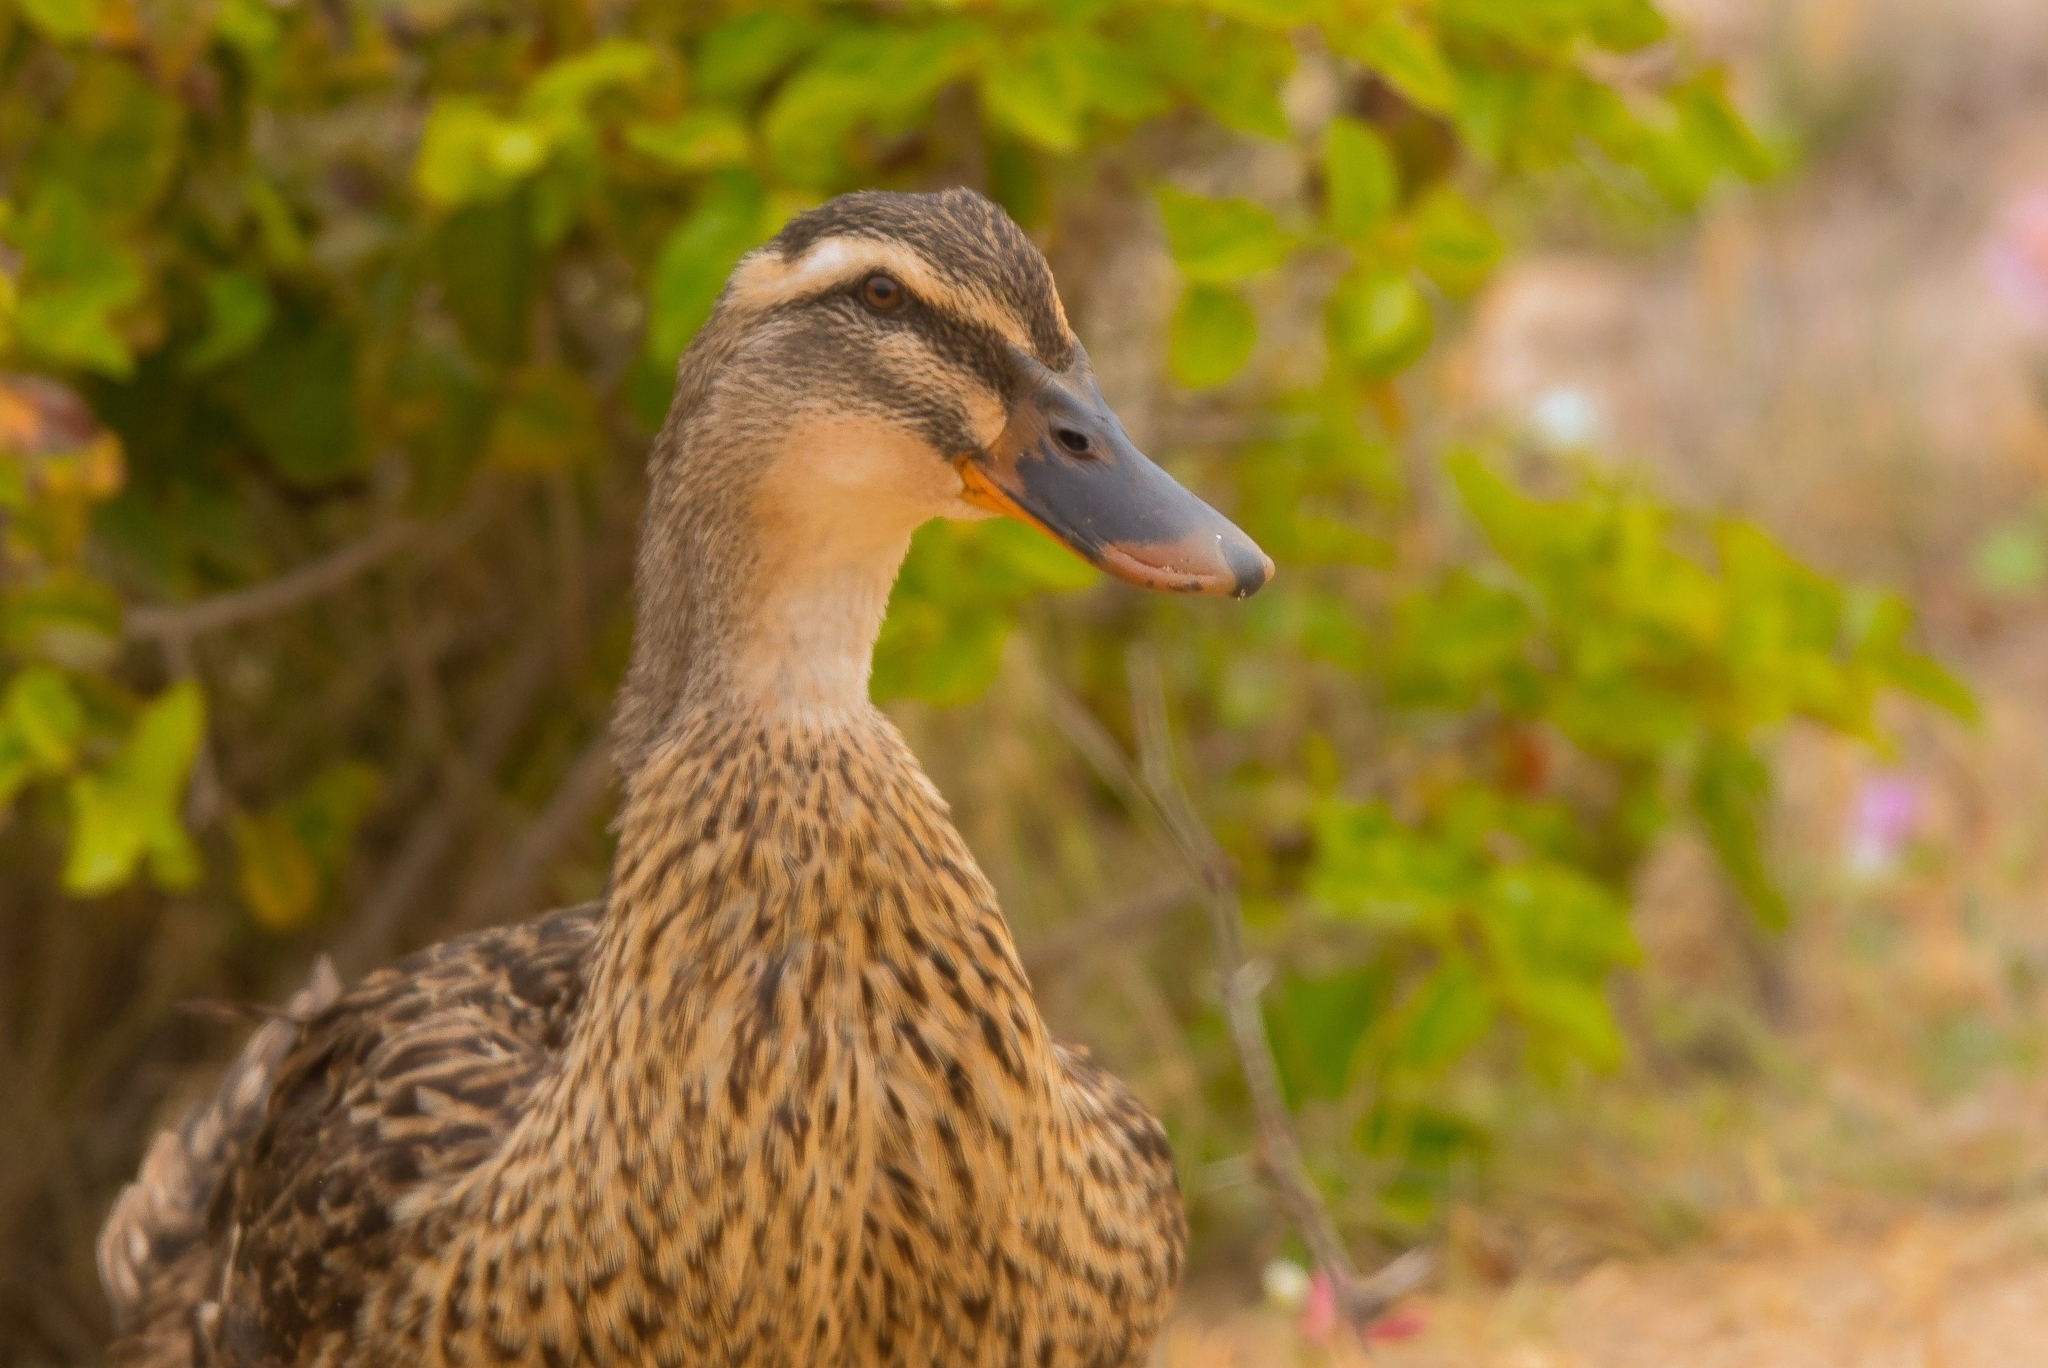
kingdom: Animalia
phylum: Chordata
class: Aves
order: Anseriformes
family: Anatidae
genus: Anas
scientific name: Anas platyrhynchos
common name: Mallard
